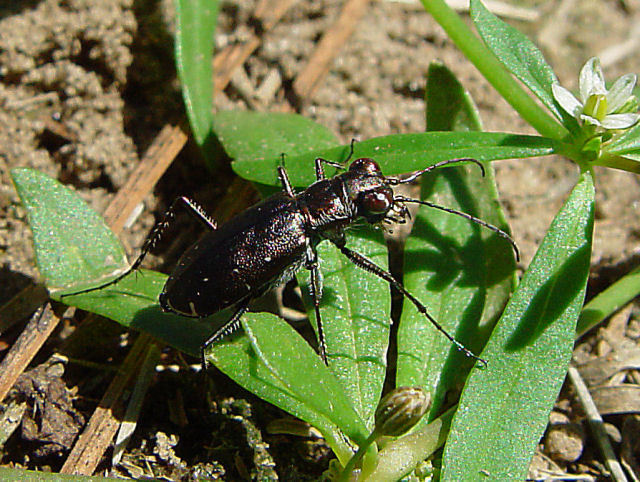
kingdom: Animalia
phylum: Arthropoda
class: Insecta
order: Coleoptera
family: Carabidae
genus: Cicindela
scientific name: Cicindela punctulata
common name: Punctured tiger beetle
